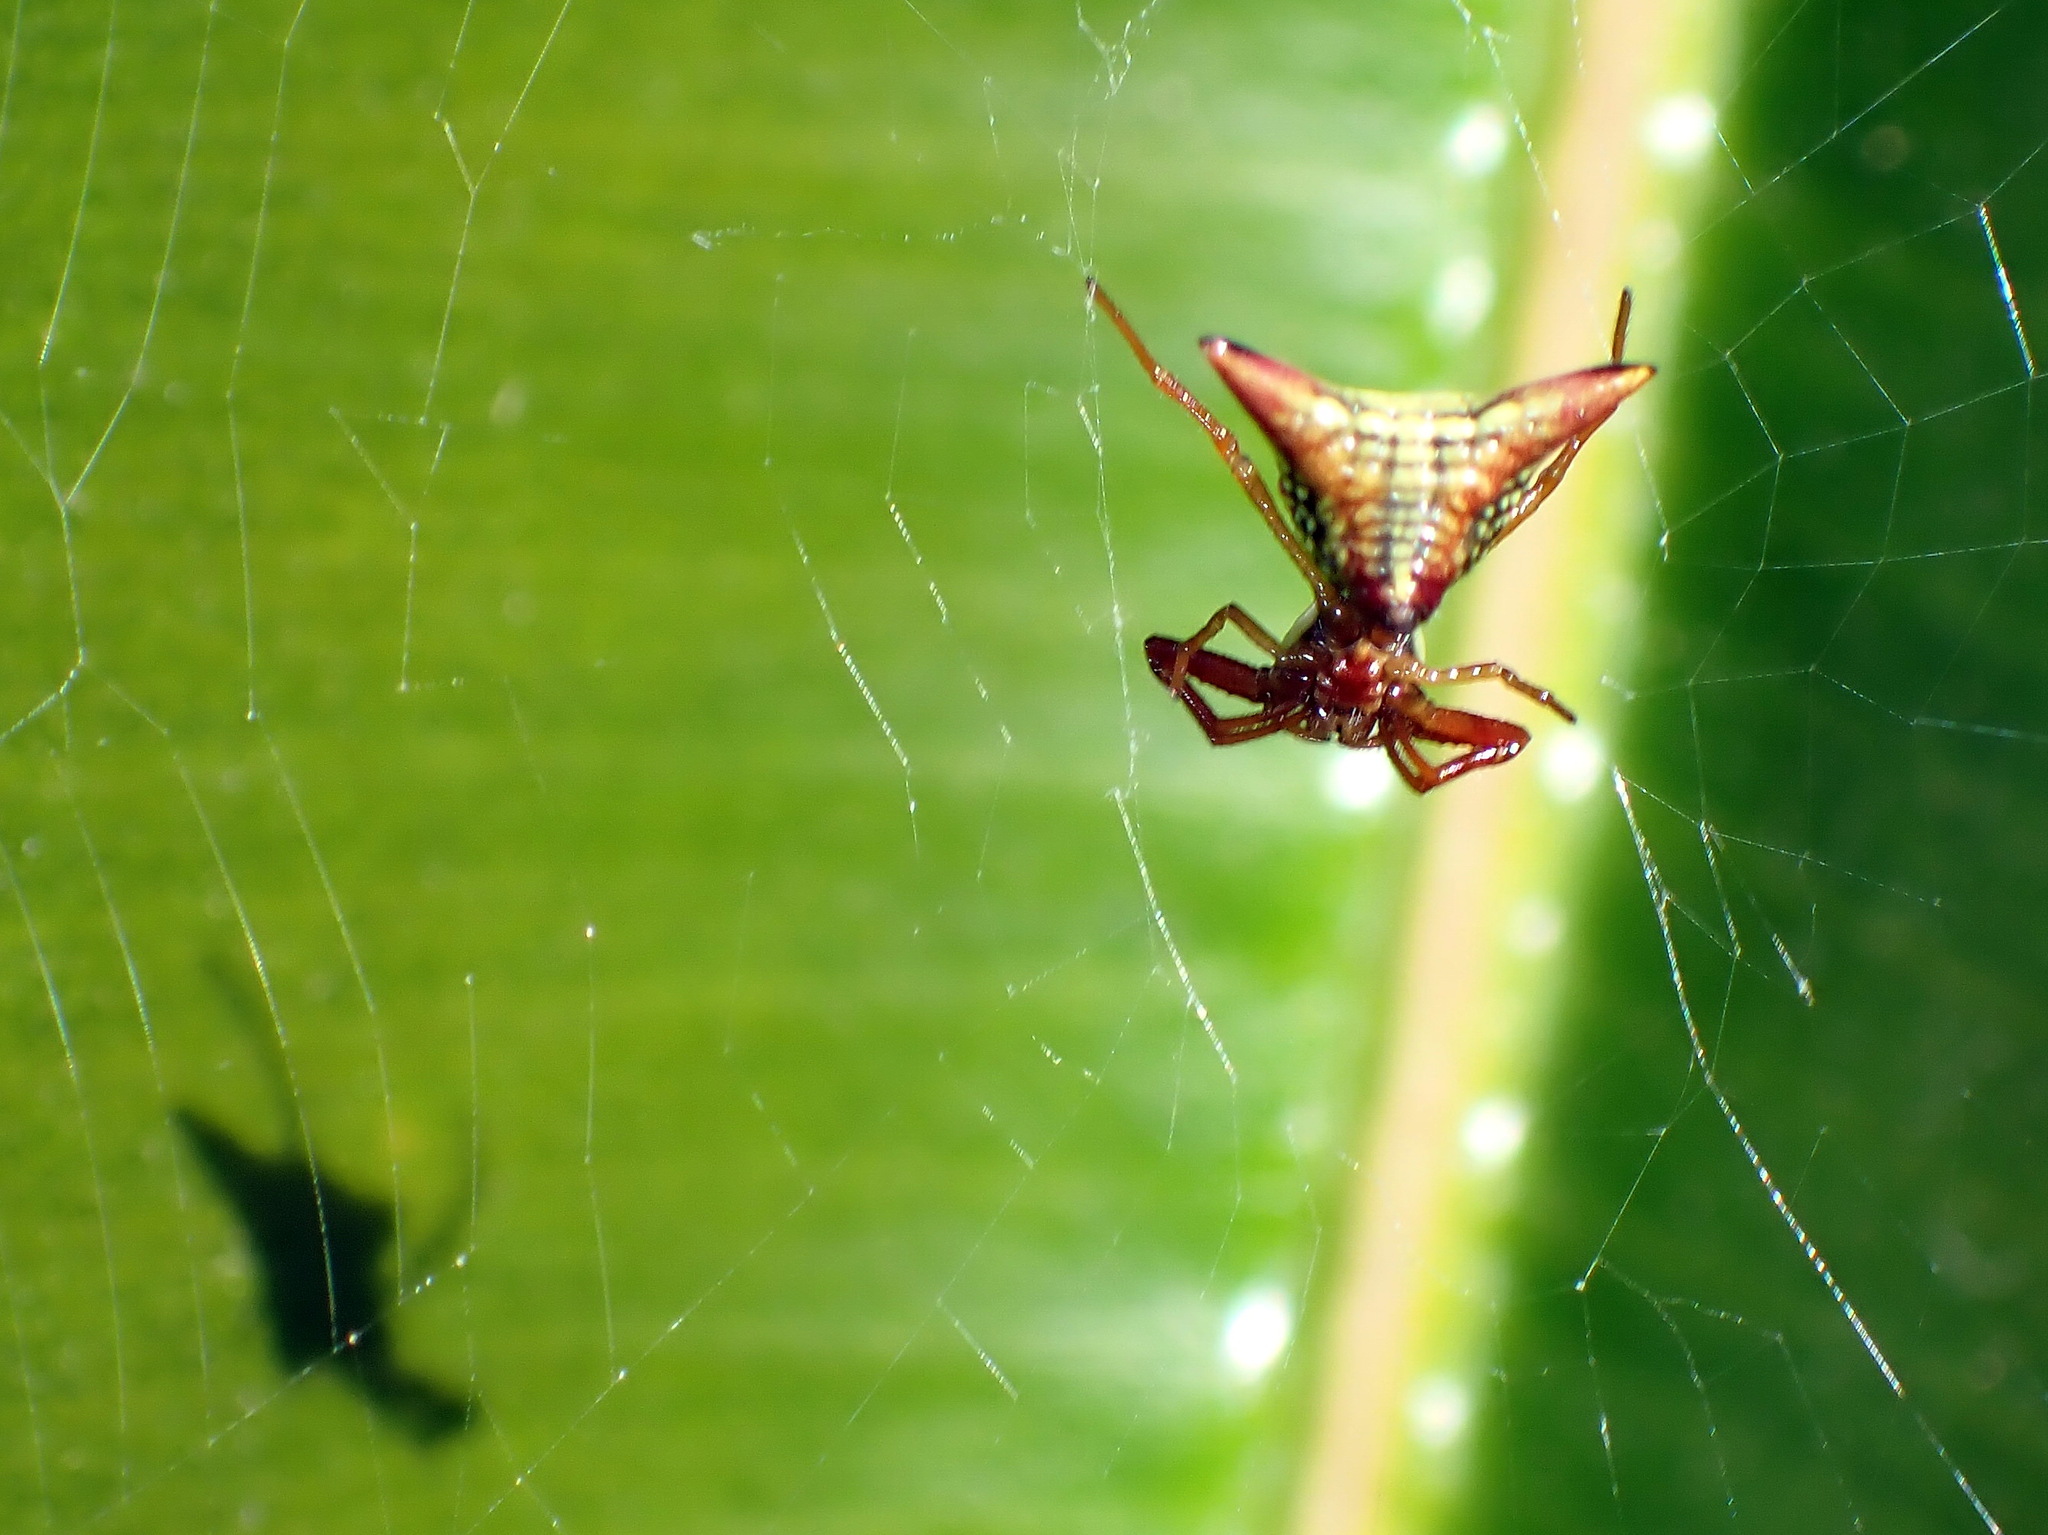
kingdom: Animalia
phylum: Arthropoda
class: Arachnida
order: Araneae
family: Araneidae
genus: Micrathena
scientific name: Micrathena sagittata
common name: Orb weavers
